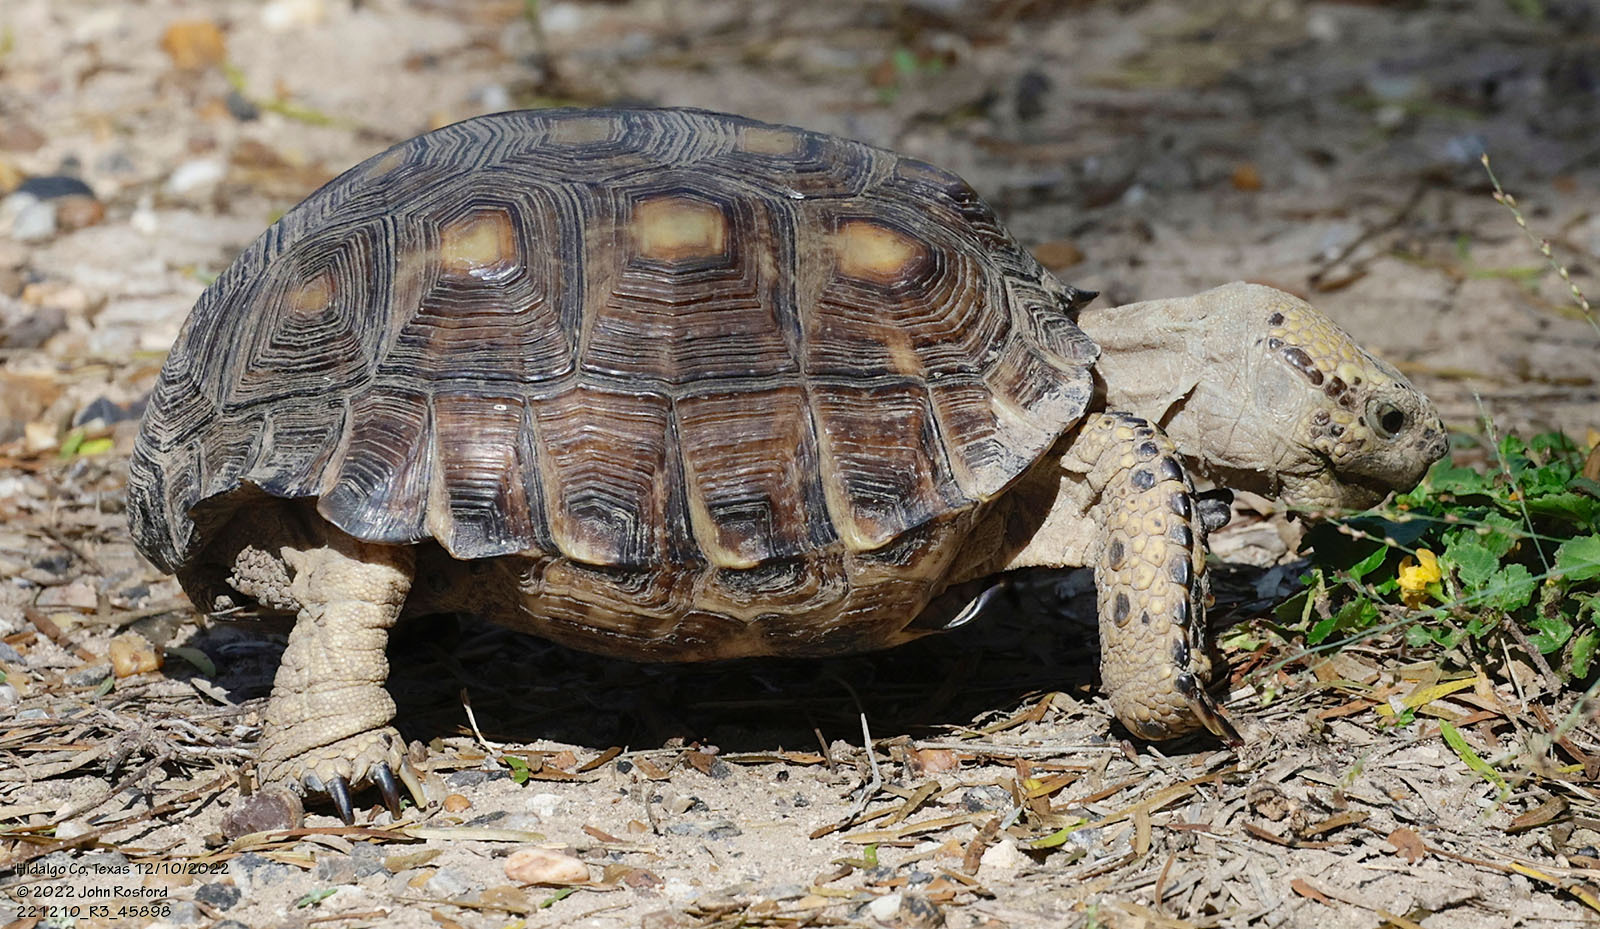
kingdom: Animalia
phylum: Chordata
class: Testudines
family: Testudinidae
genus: Gopherus
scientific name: Gopherus berlandieri
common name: Texas (gopher )tortoise
